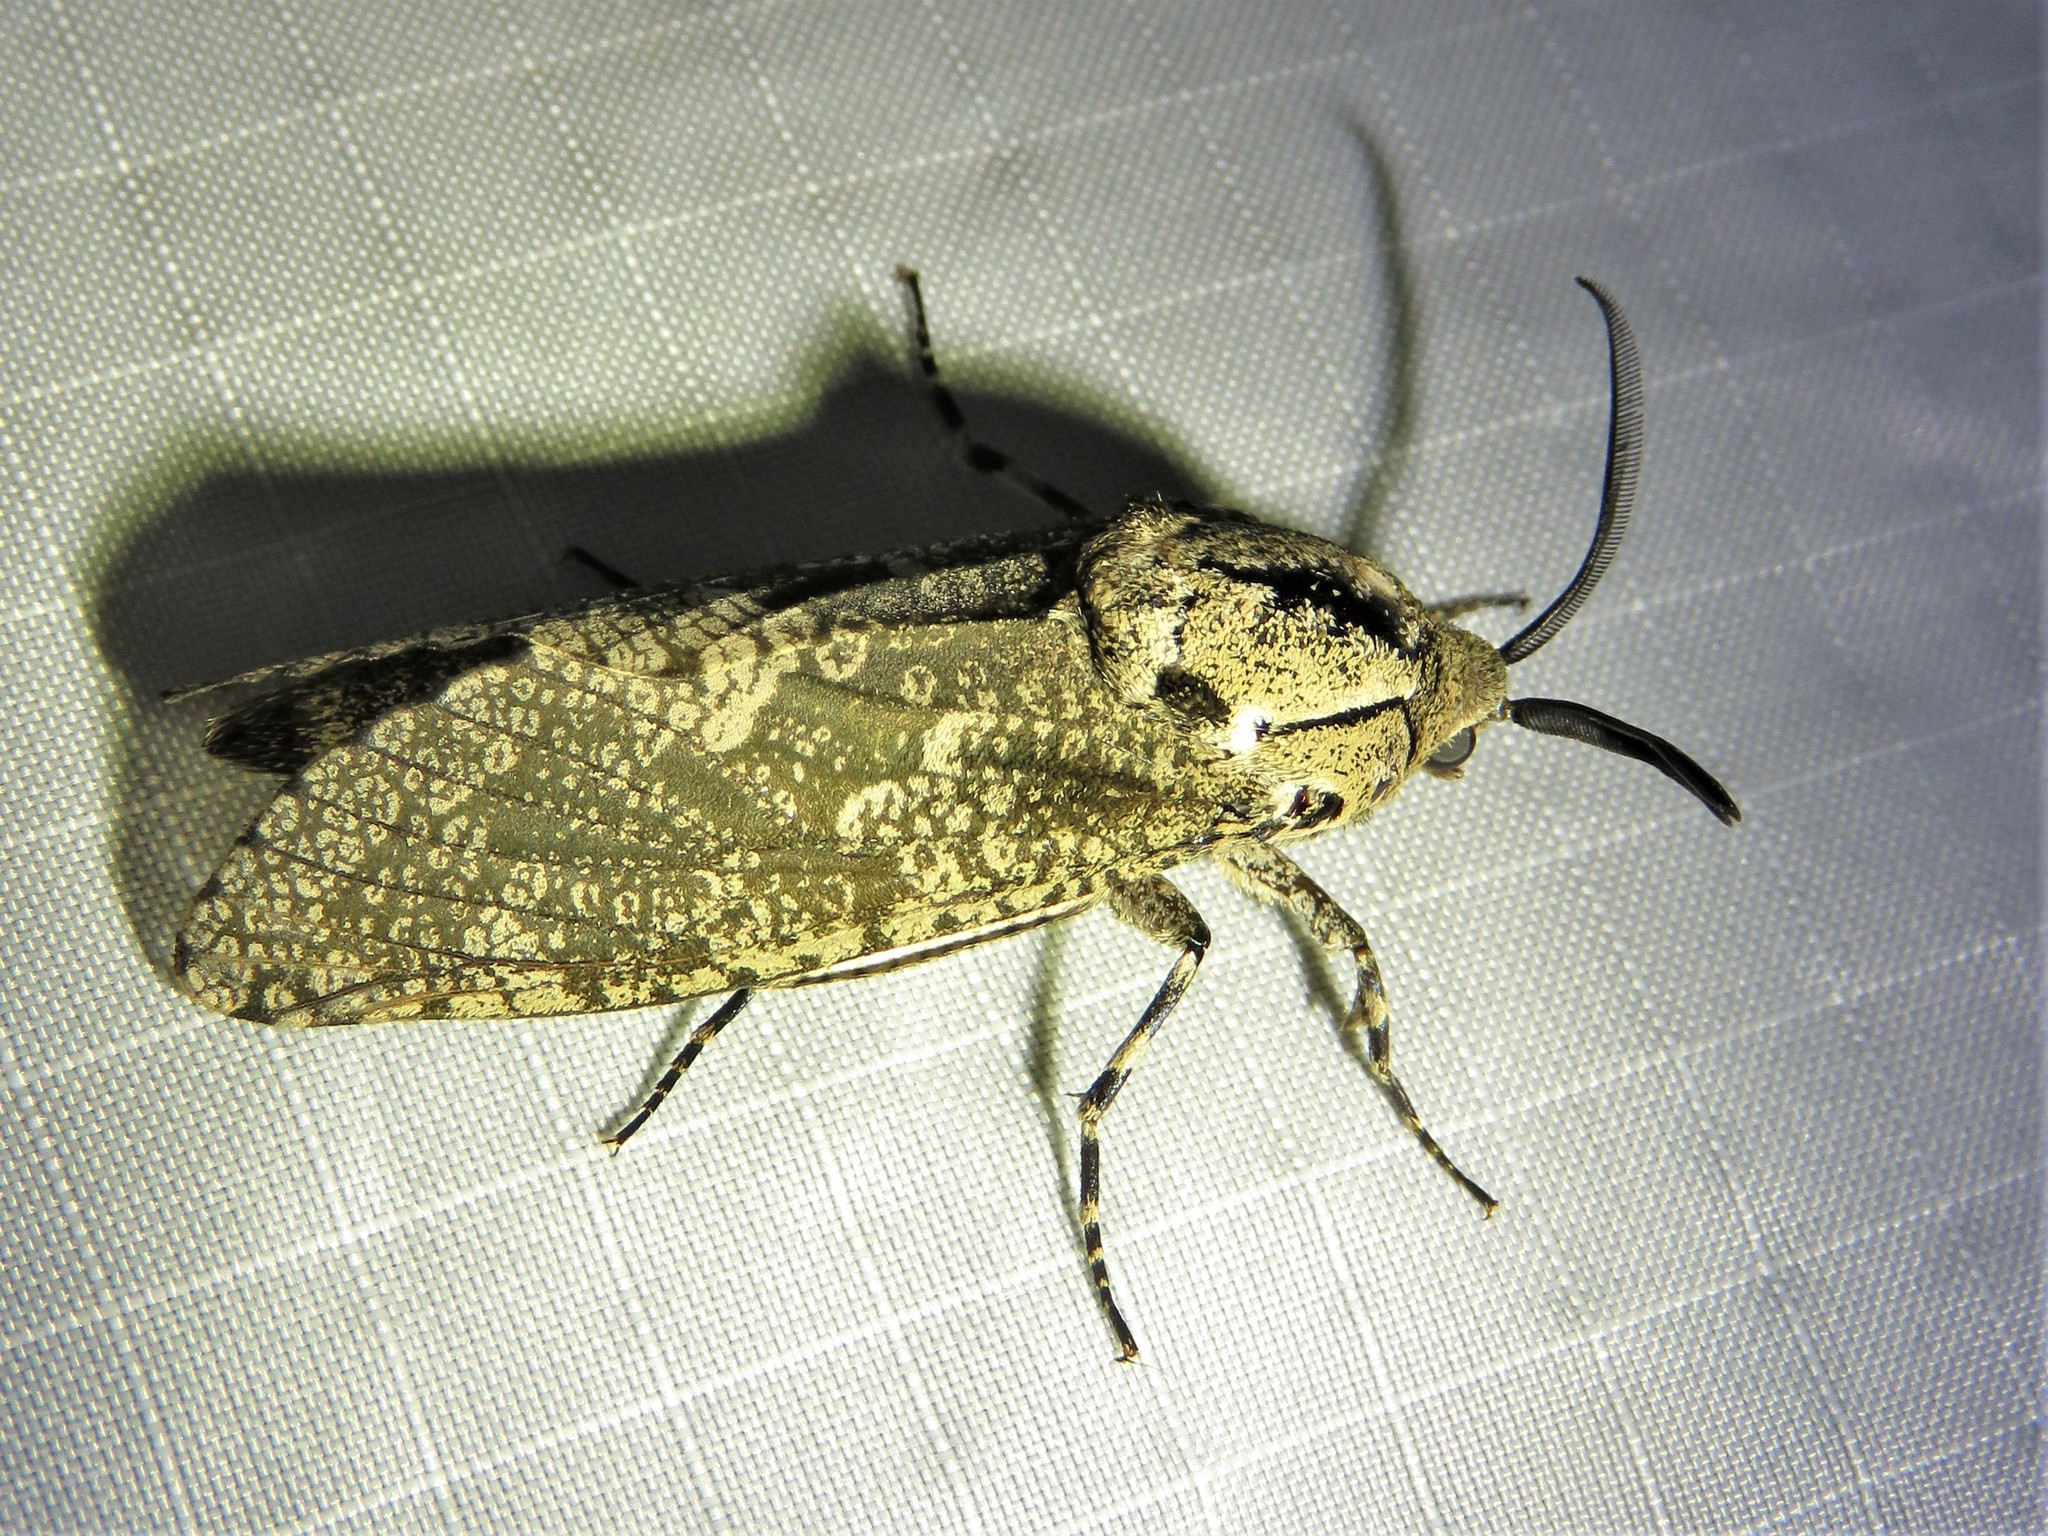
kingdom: Animalia
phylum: Arthropoda
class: Insecta
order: Lepidoptera
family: Cossidae
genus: Prionoxystus
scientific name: Prionoxystus robiniae
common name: Carpenterworm
